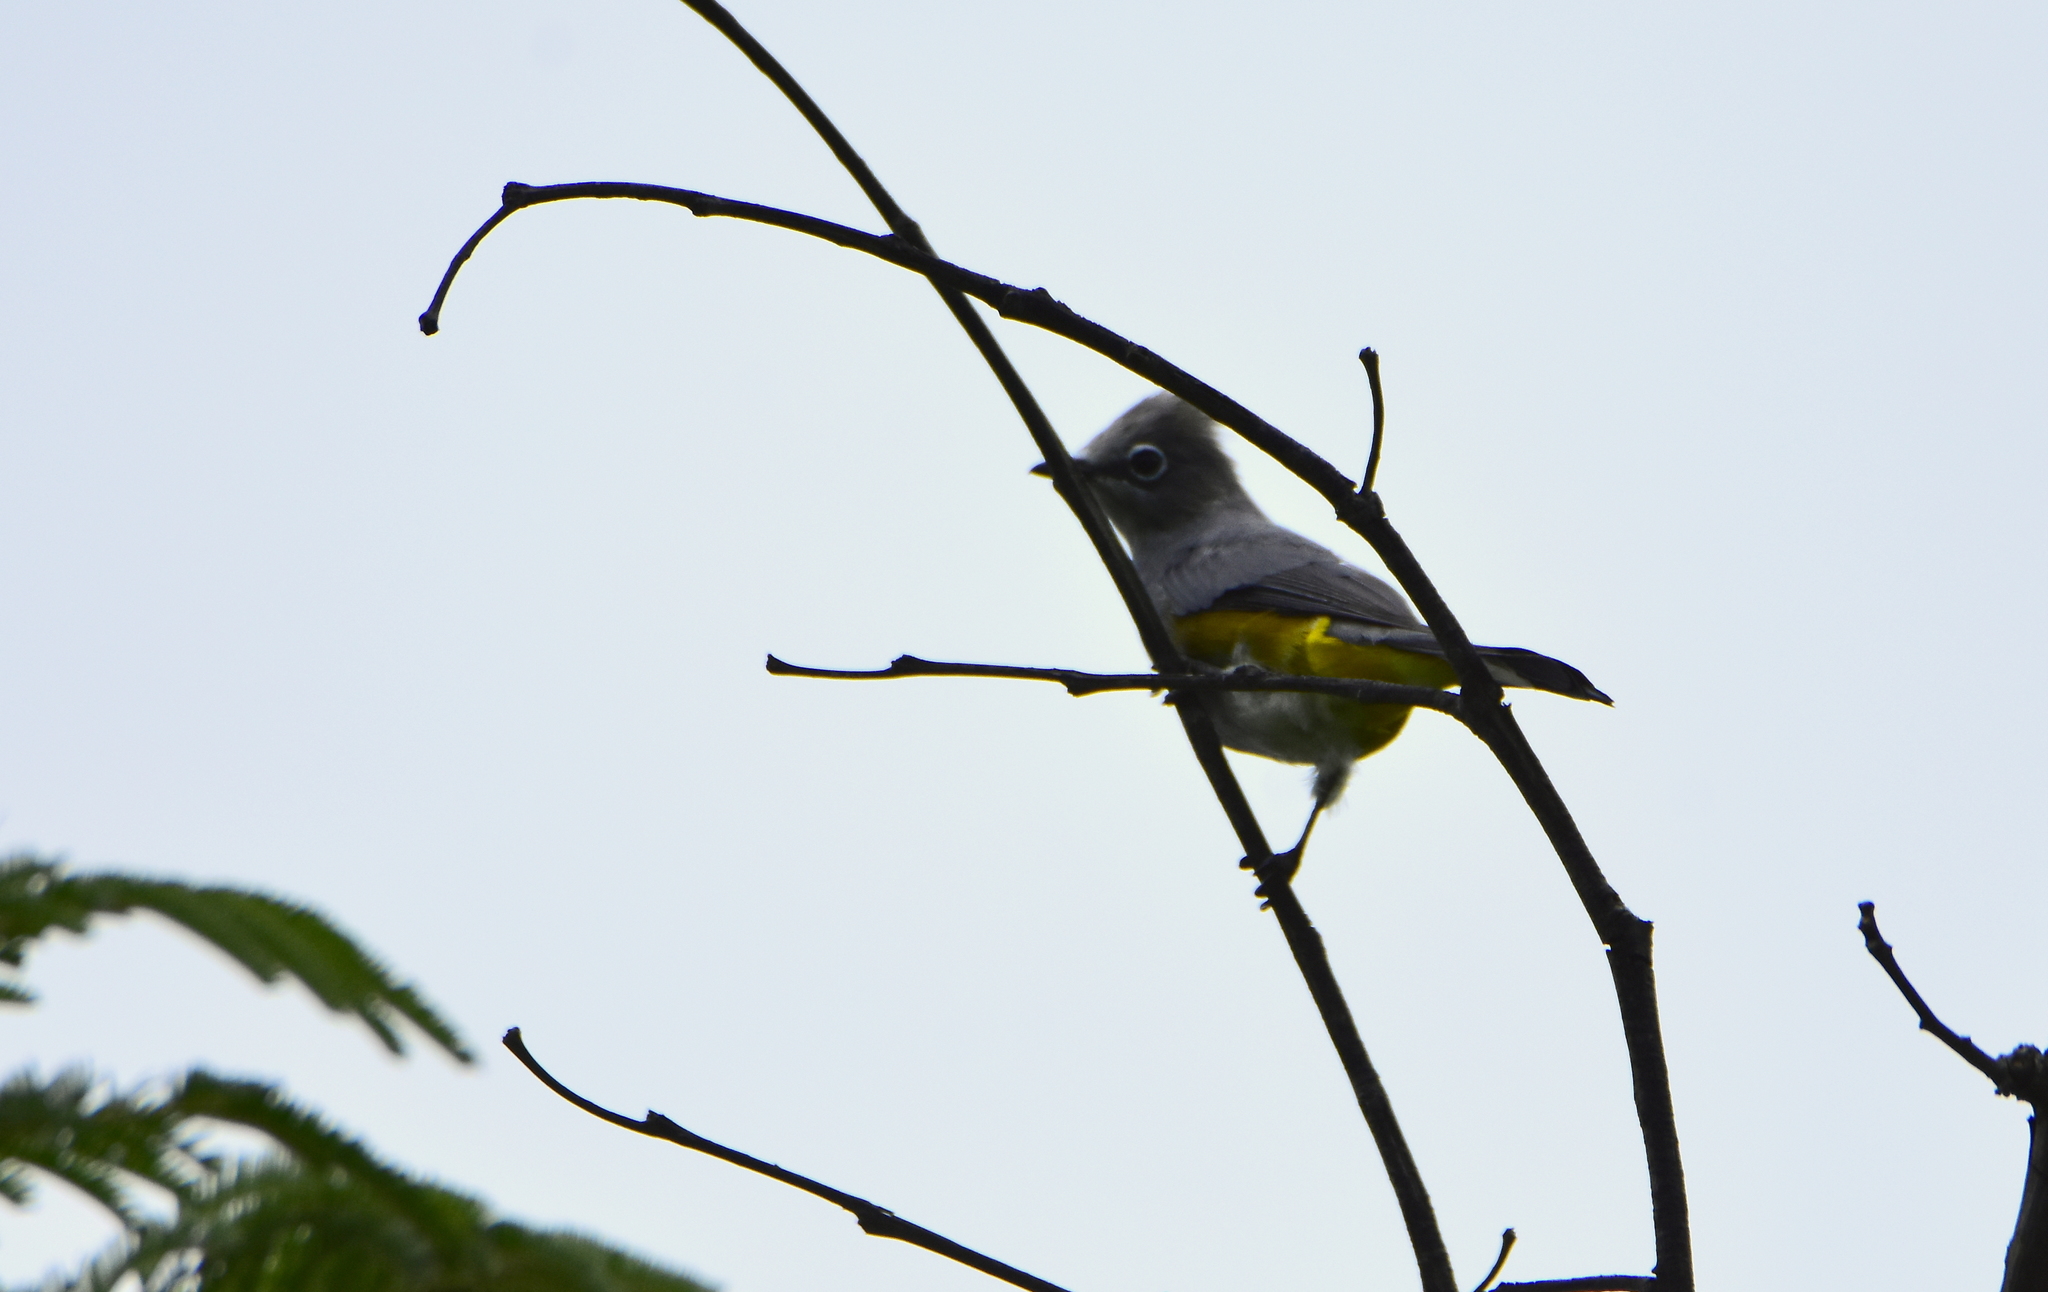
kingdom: Animalia
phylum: Chordata
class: Aves
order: Passeriformes
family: Ptilogonatidae
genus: Ptilogonys
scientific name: Ptilogonys cinereus
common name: Gray silky-flycatcher
